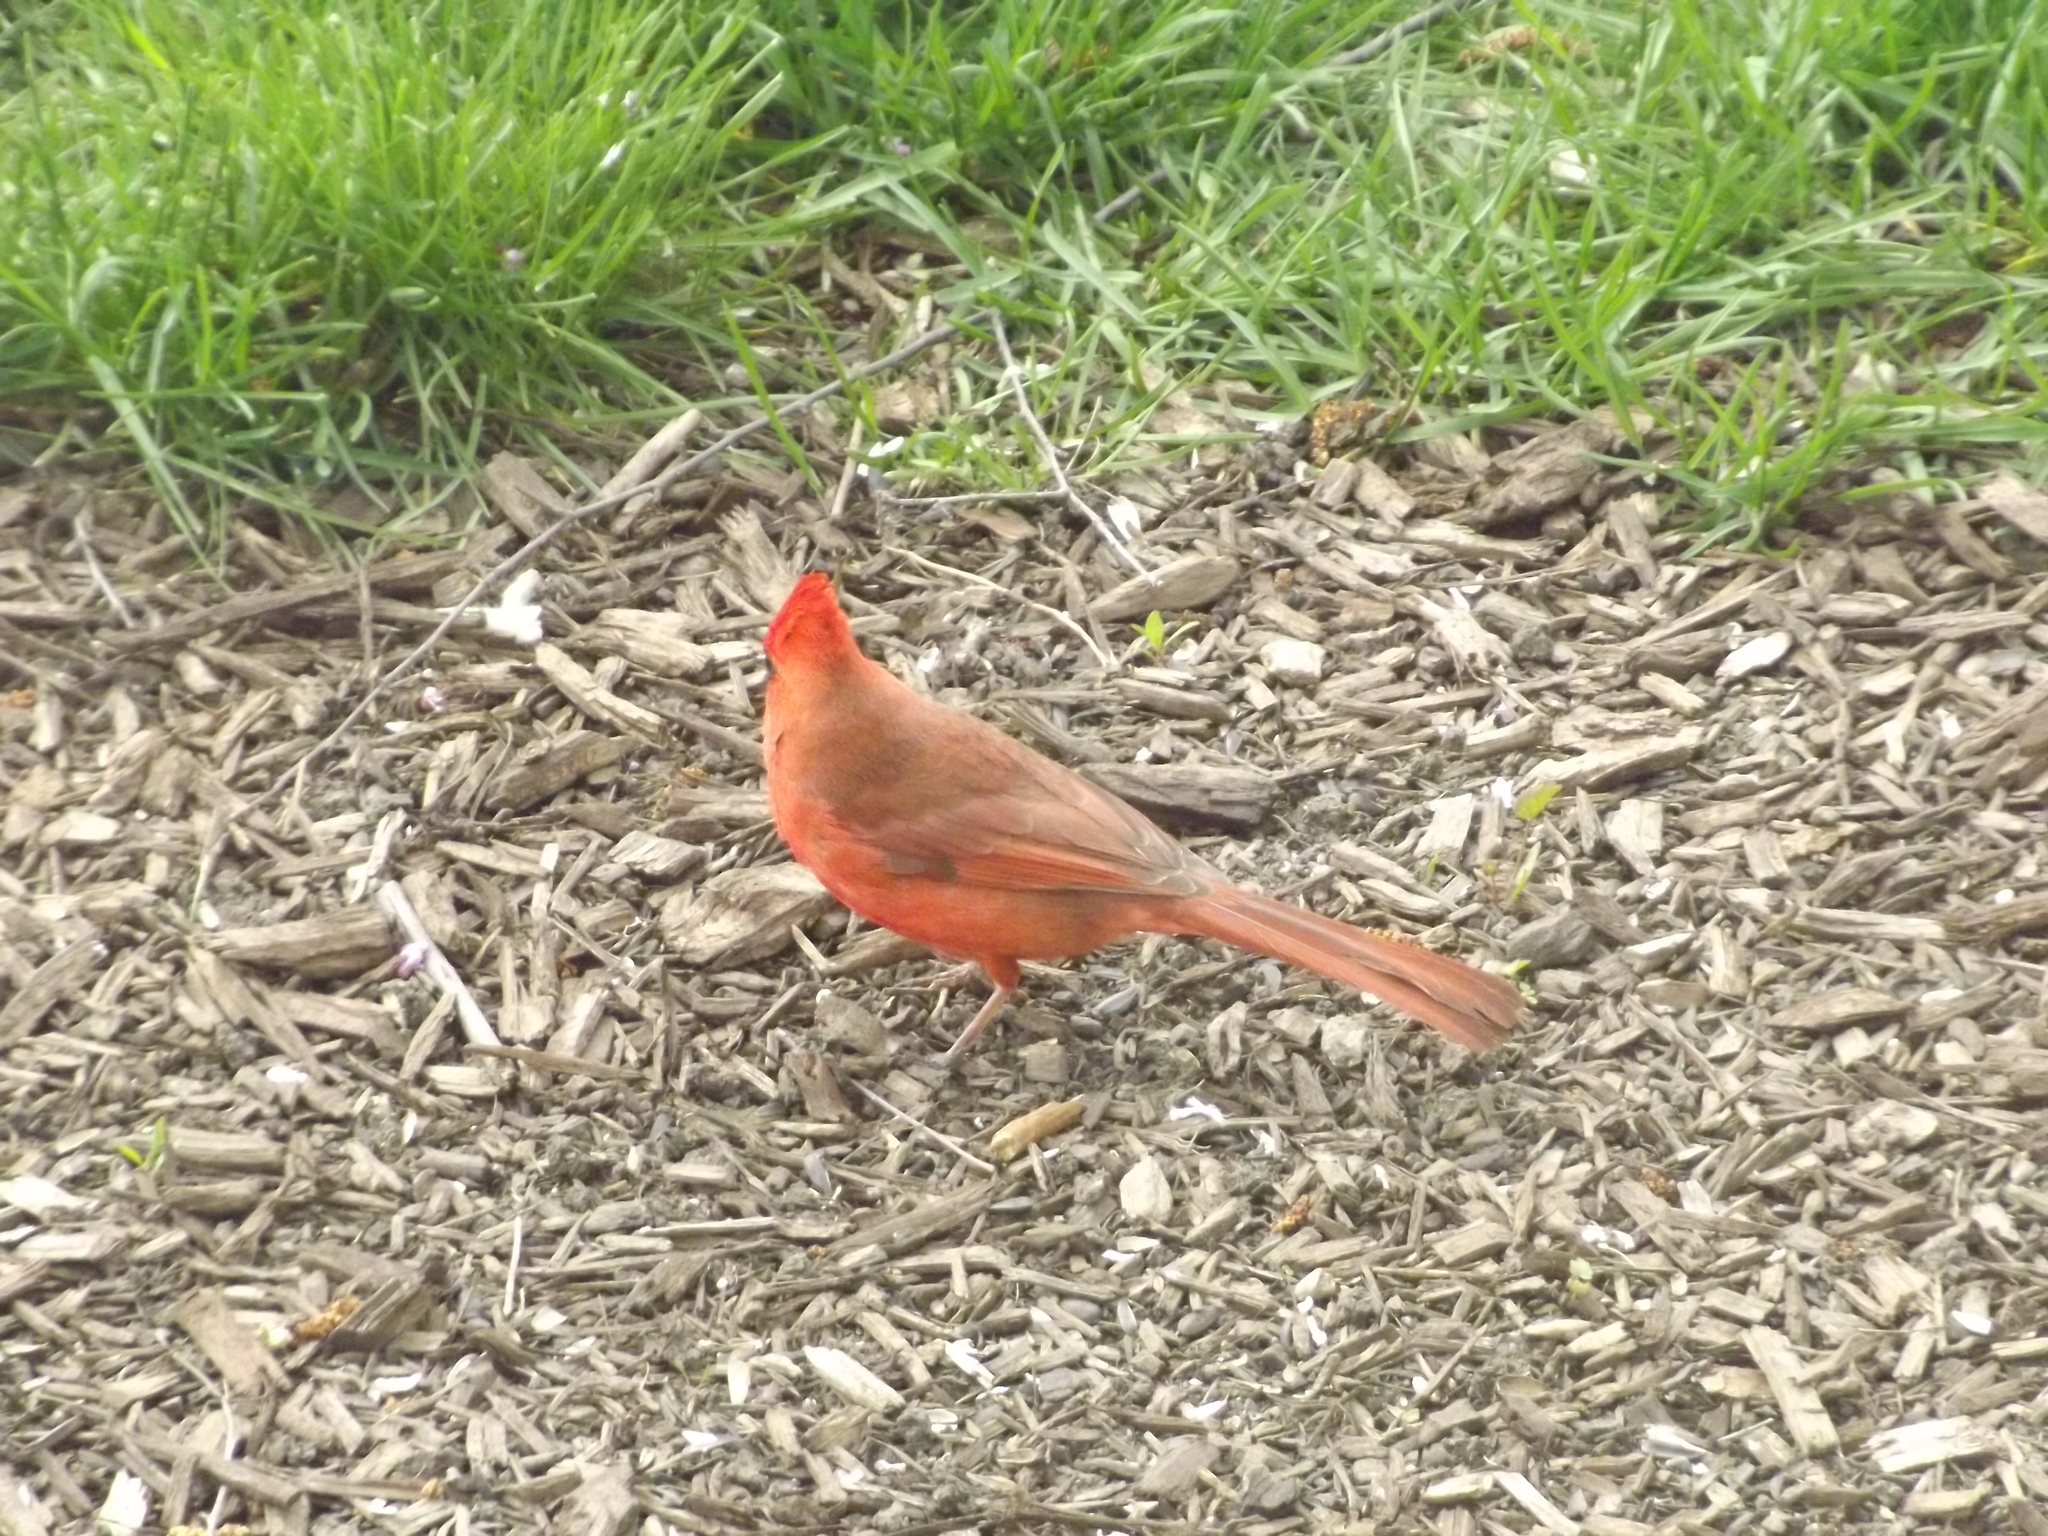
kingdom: Animalia
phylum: Chordata
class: Aves
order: Passeriformes
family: Cardinalidae
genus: Cardinalis
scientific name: Cardinalis cardinalis
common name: Northern cardinal
